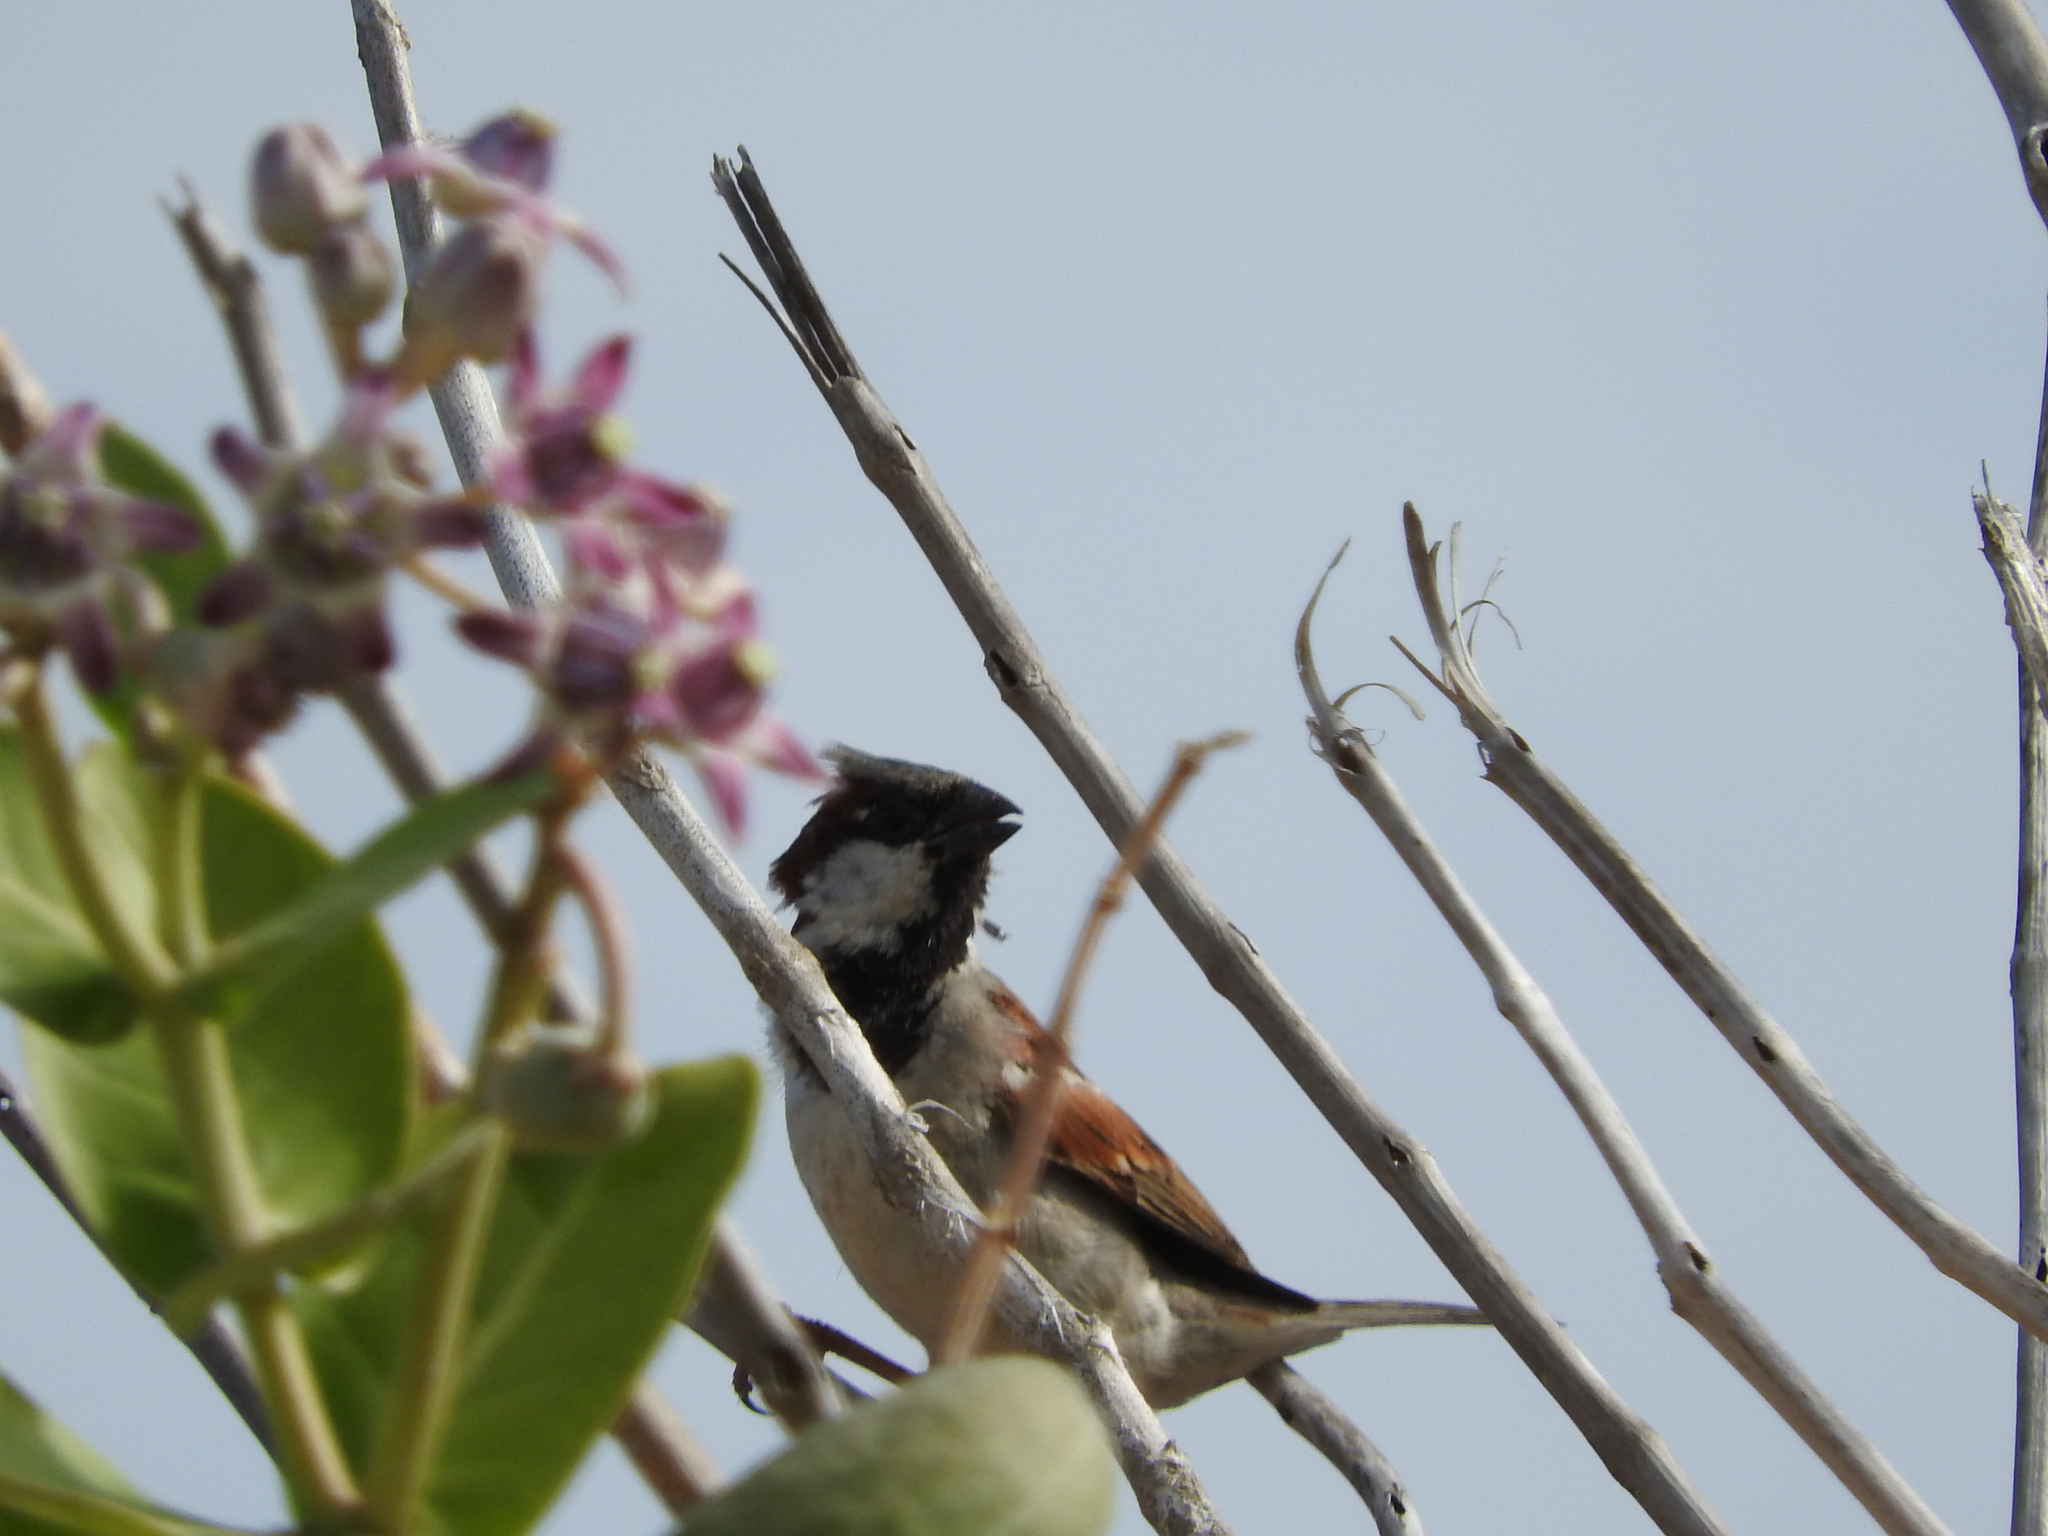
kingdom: Animalia
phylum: Chordata
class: Aves
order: Passeriformes
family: Passeridae
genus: Passer
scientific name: Passer domesticus
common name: House sparrow
